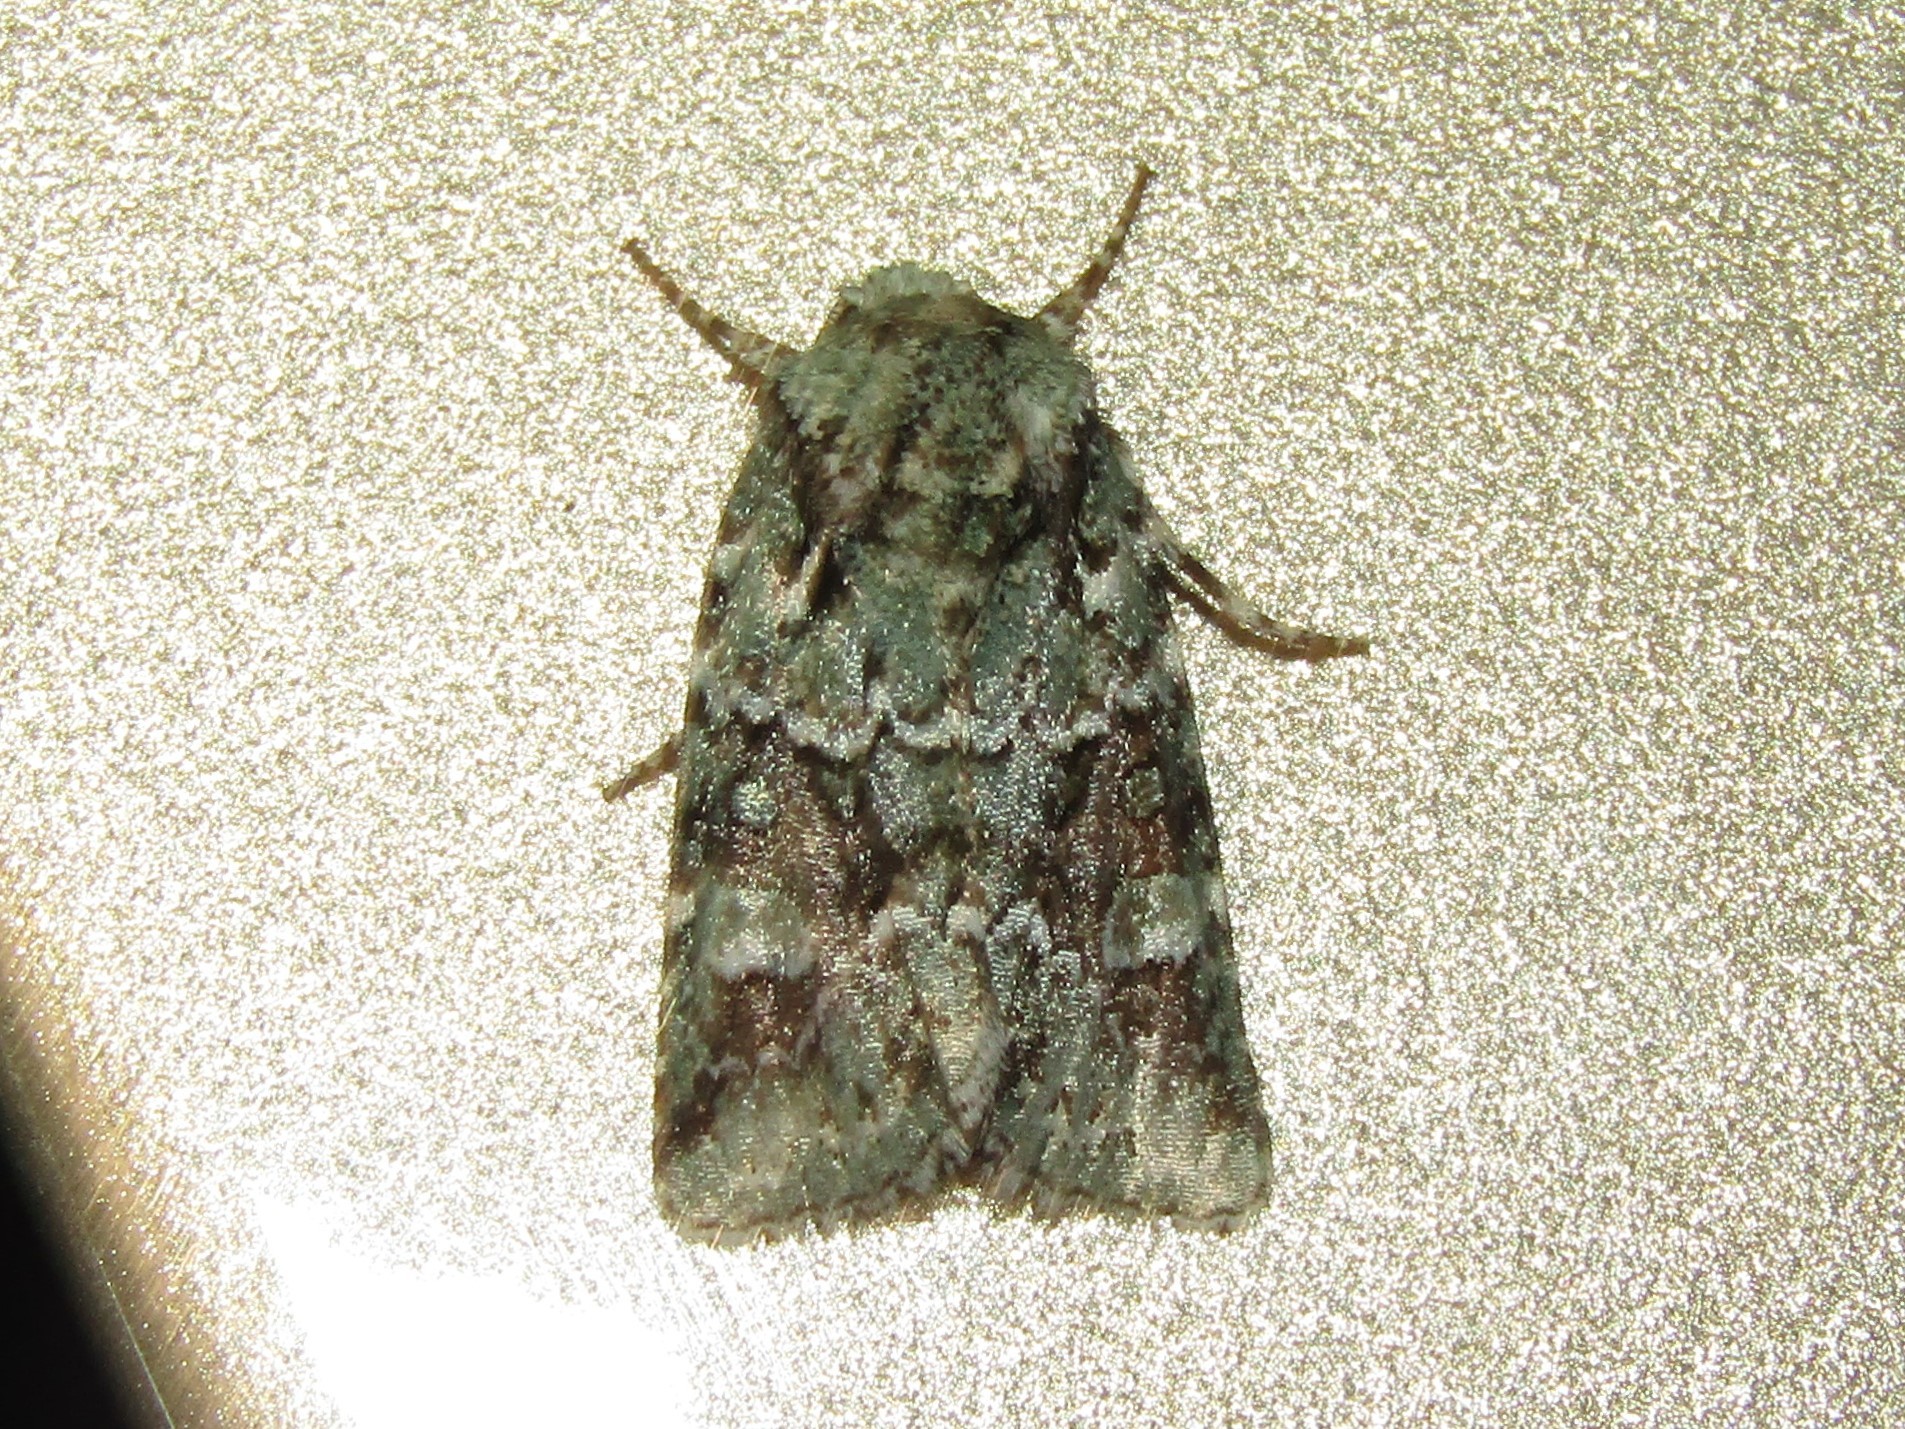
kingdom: Animalia
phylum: Arthropoda
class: Insecta
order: Lepidoptera
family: Noctuidae
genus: Lacinipolia
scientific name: Lacinipolia laudabilis
